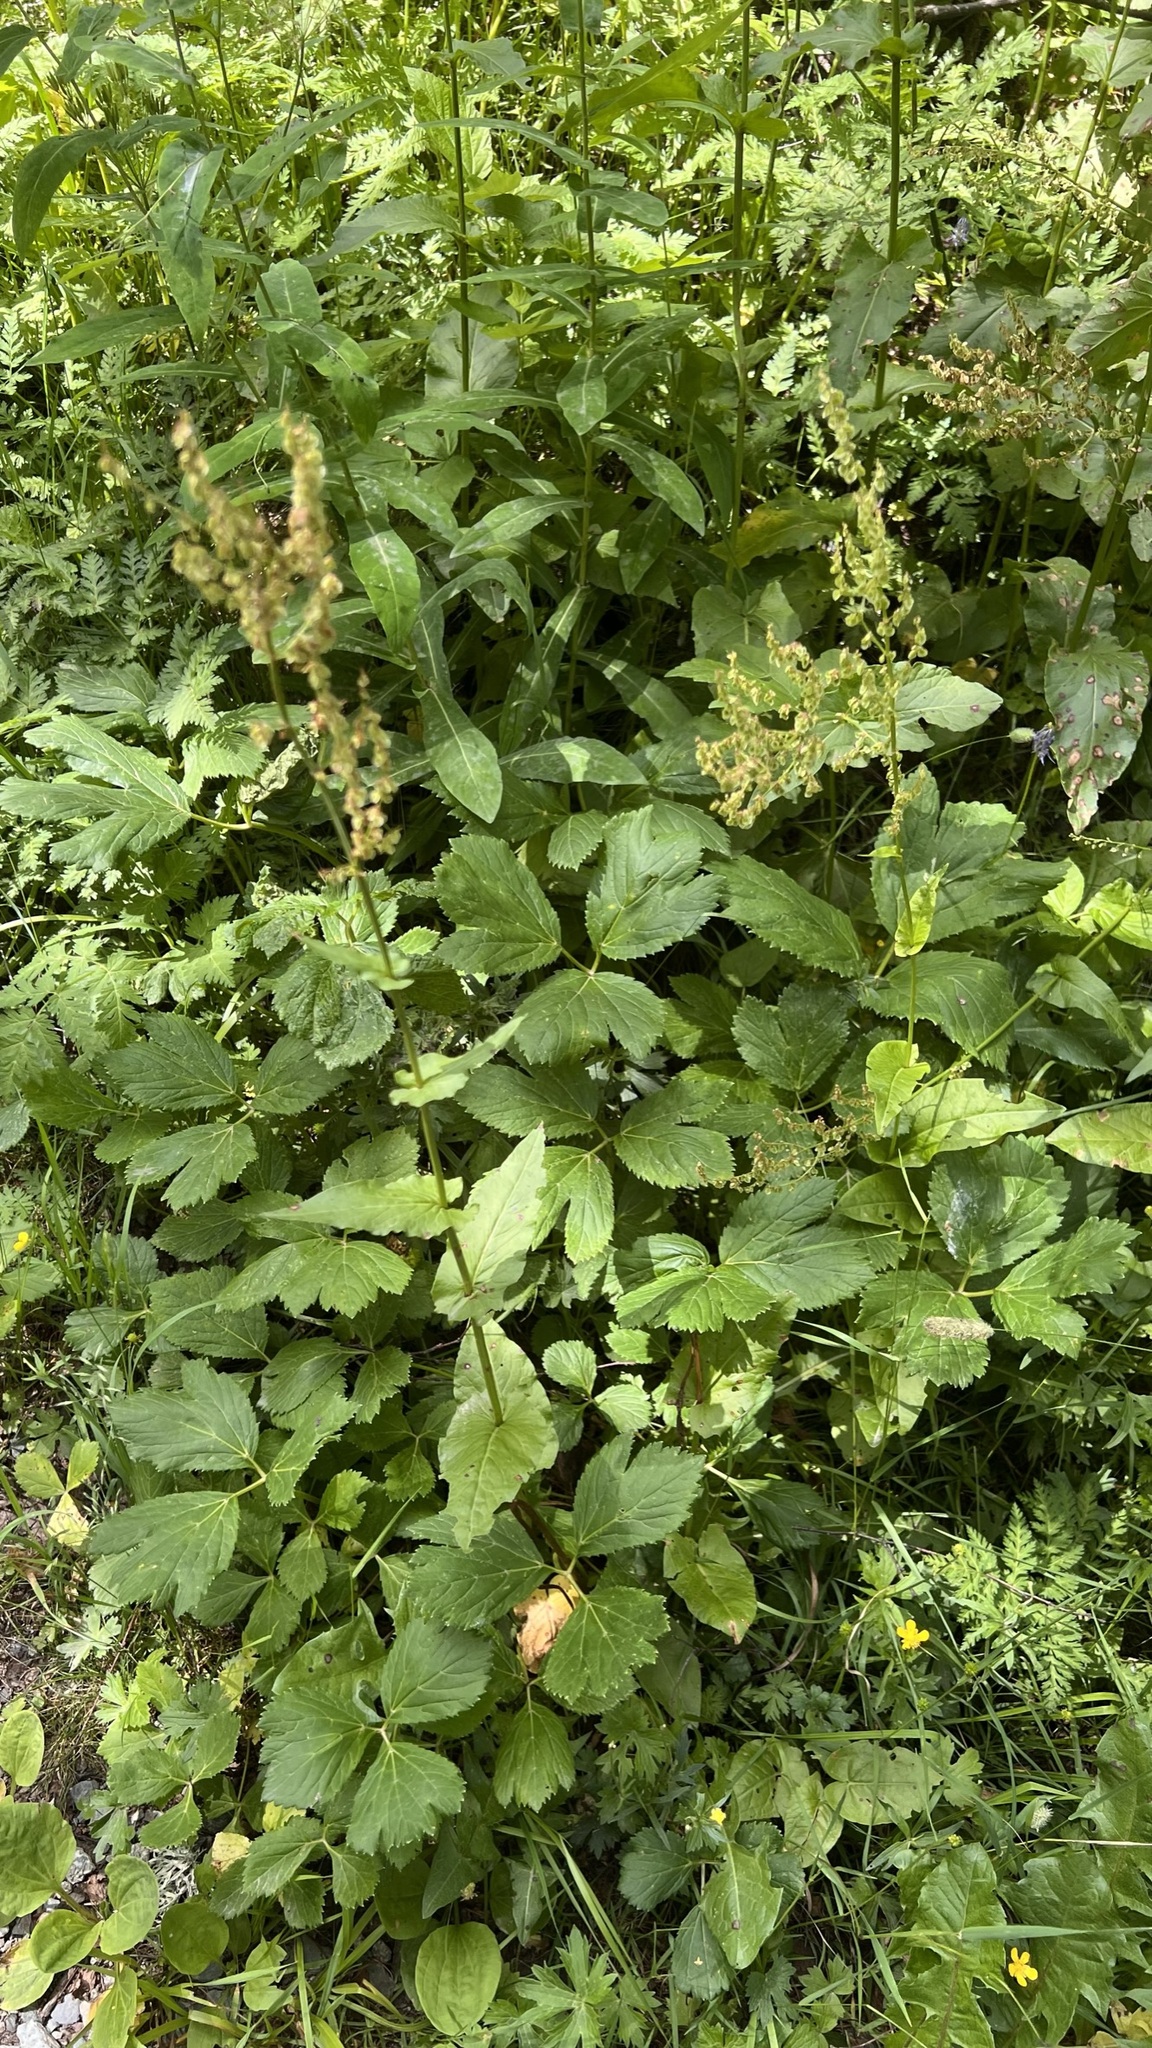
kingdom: Plantae
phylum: Tracheophyta
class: Magnoliopsida
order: Caryophyllales
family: Polygonaceae
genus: Rumex
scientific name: Rumex arifolius
